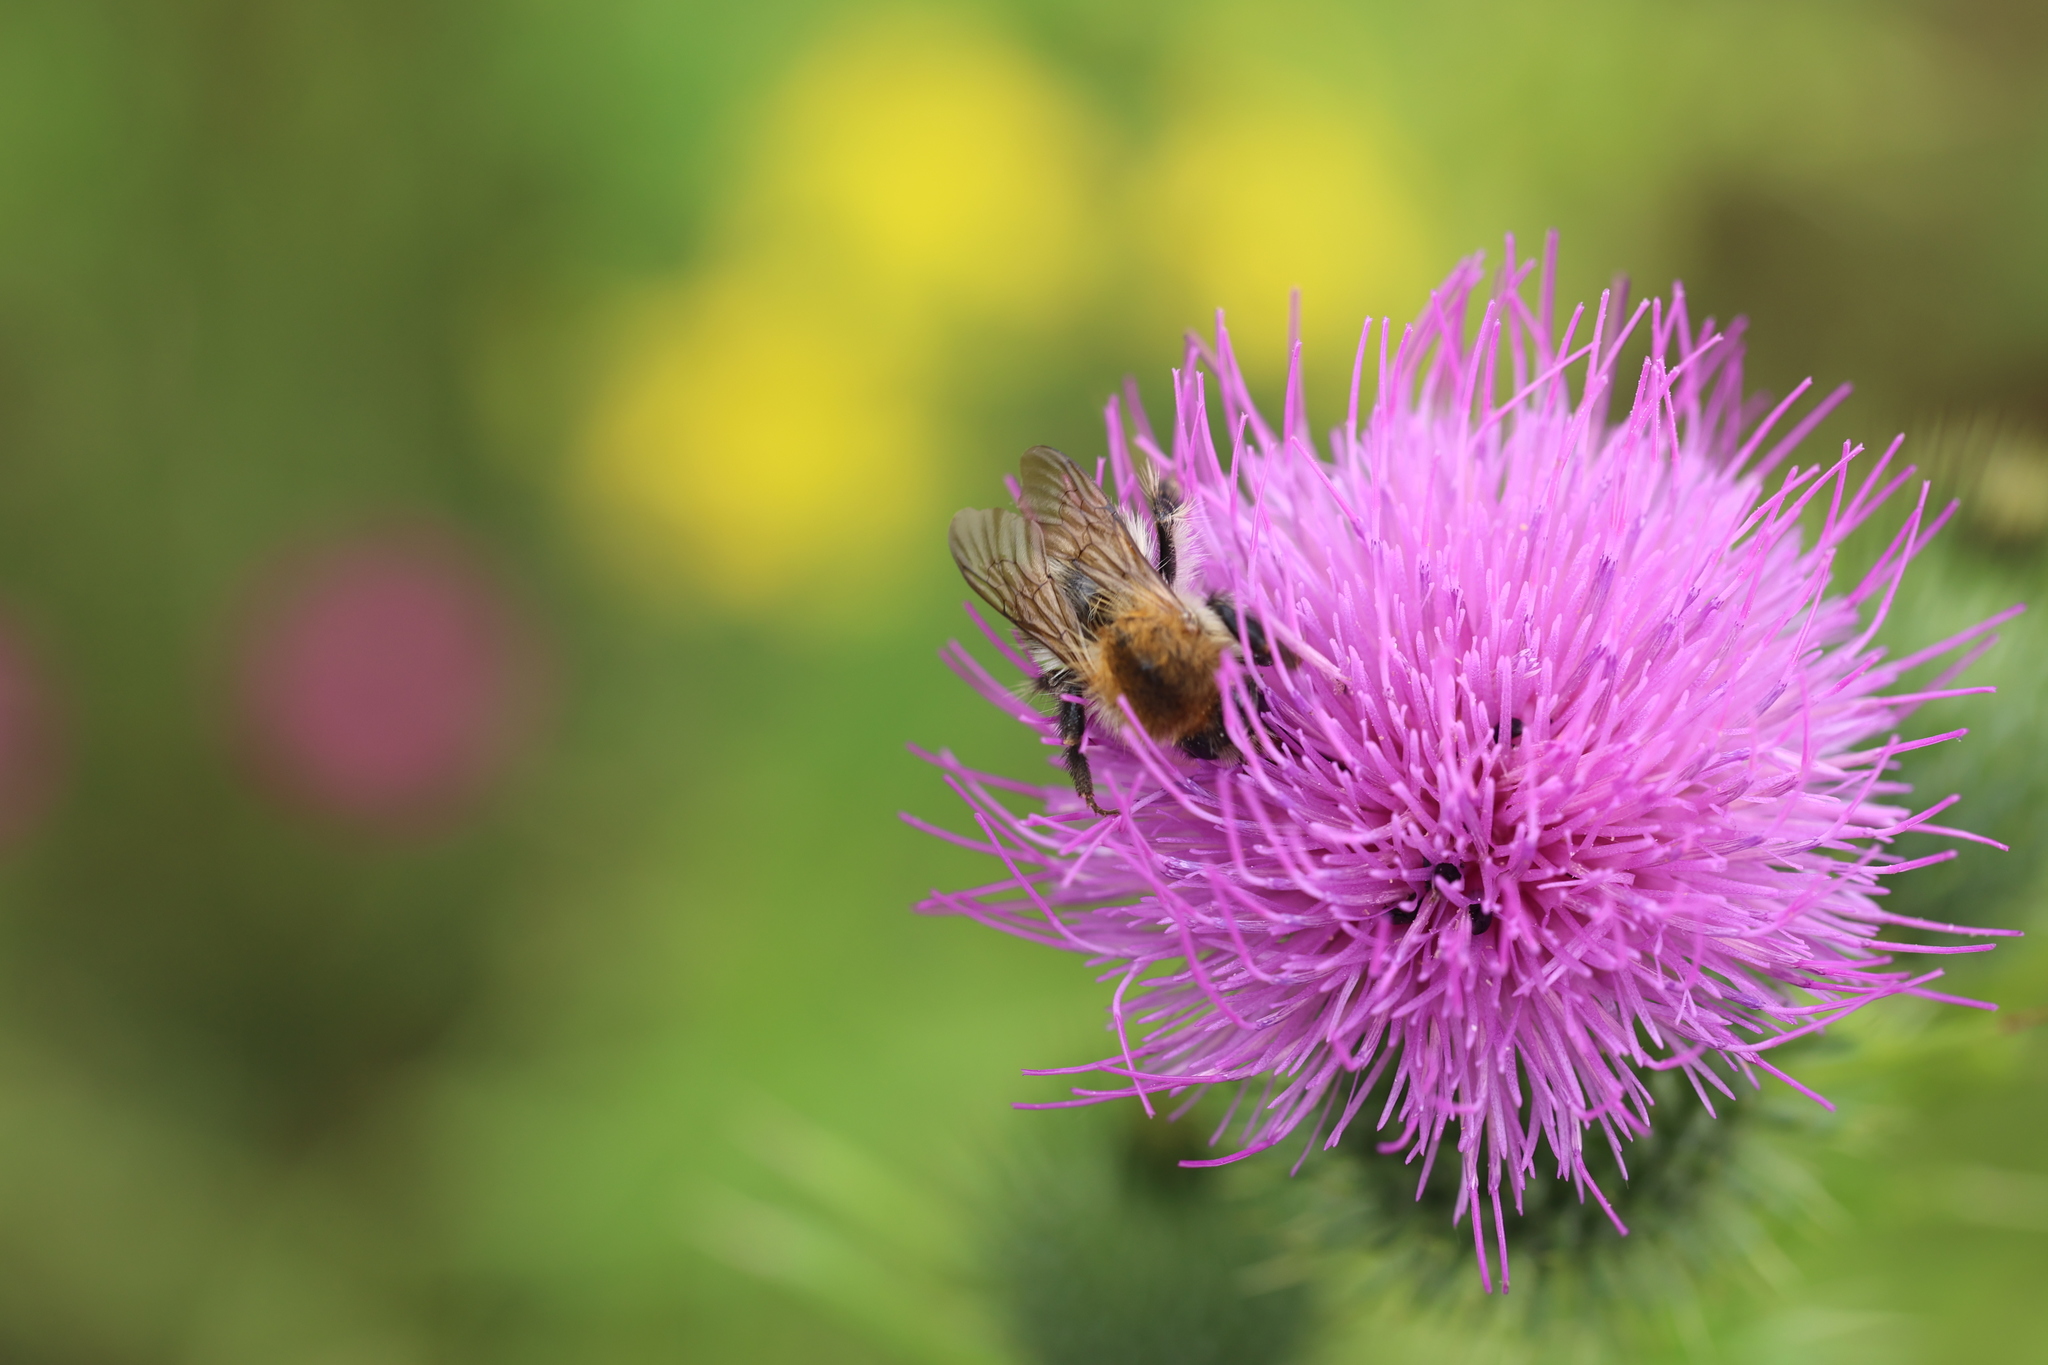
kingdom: Animalia
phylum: Arthropoda
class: Insecta
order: Hymenoptera
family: Apidae
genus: Bombus
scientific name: Bombus pascuorum
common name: Common carder bee
